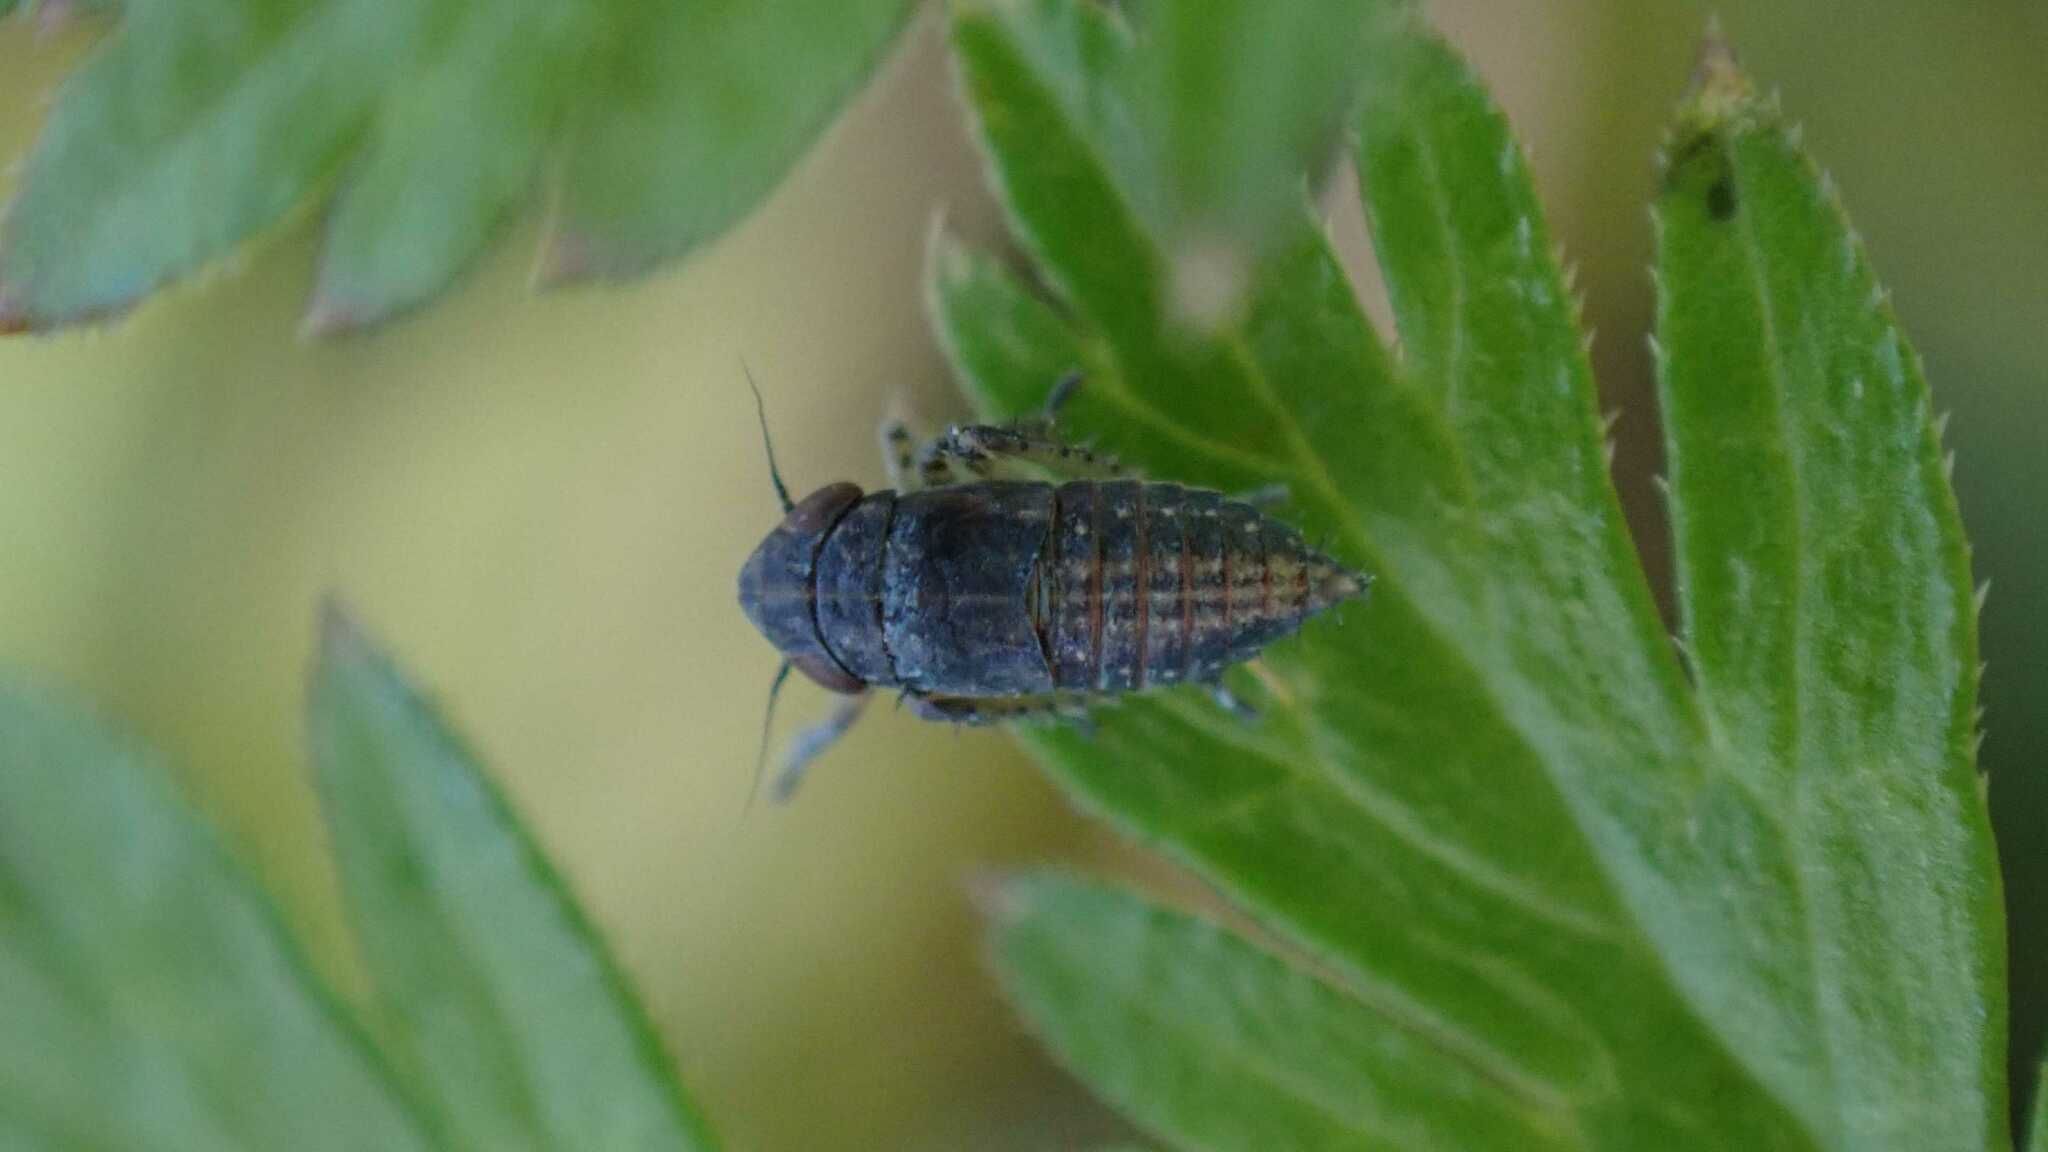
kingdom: Animalia
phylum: Arthropoda
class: Insecta
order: Hemiptera
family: Cicadellidae
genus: Euscelis
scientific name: Euscelis incisa
